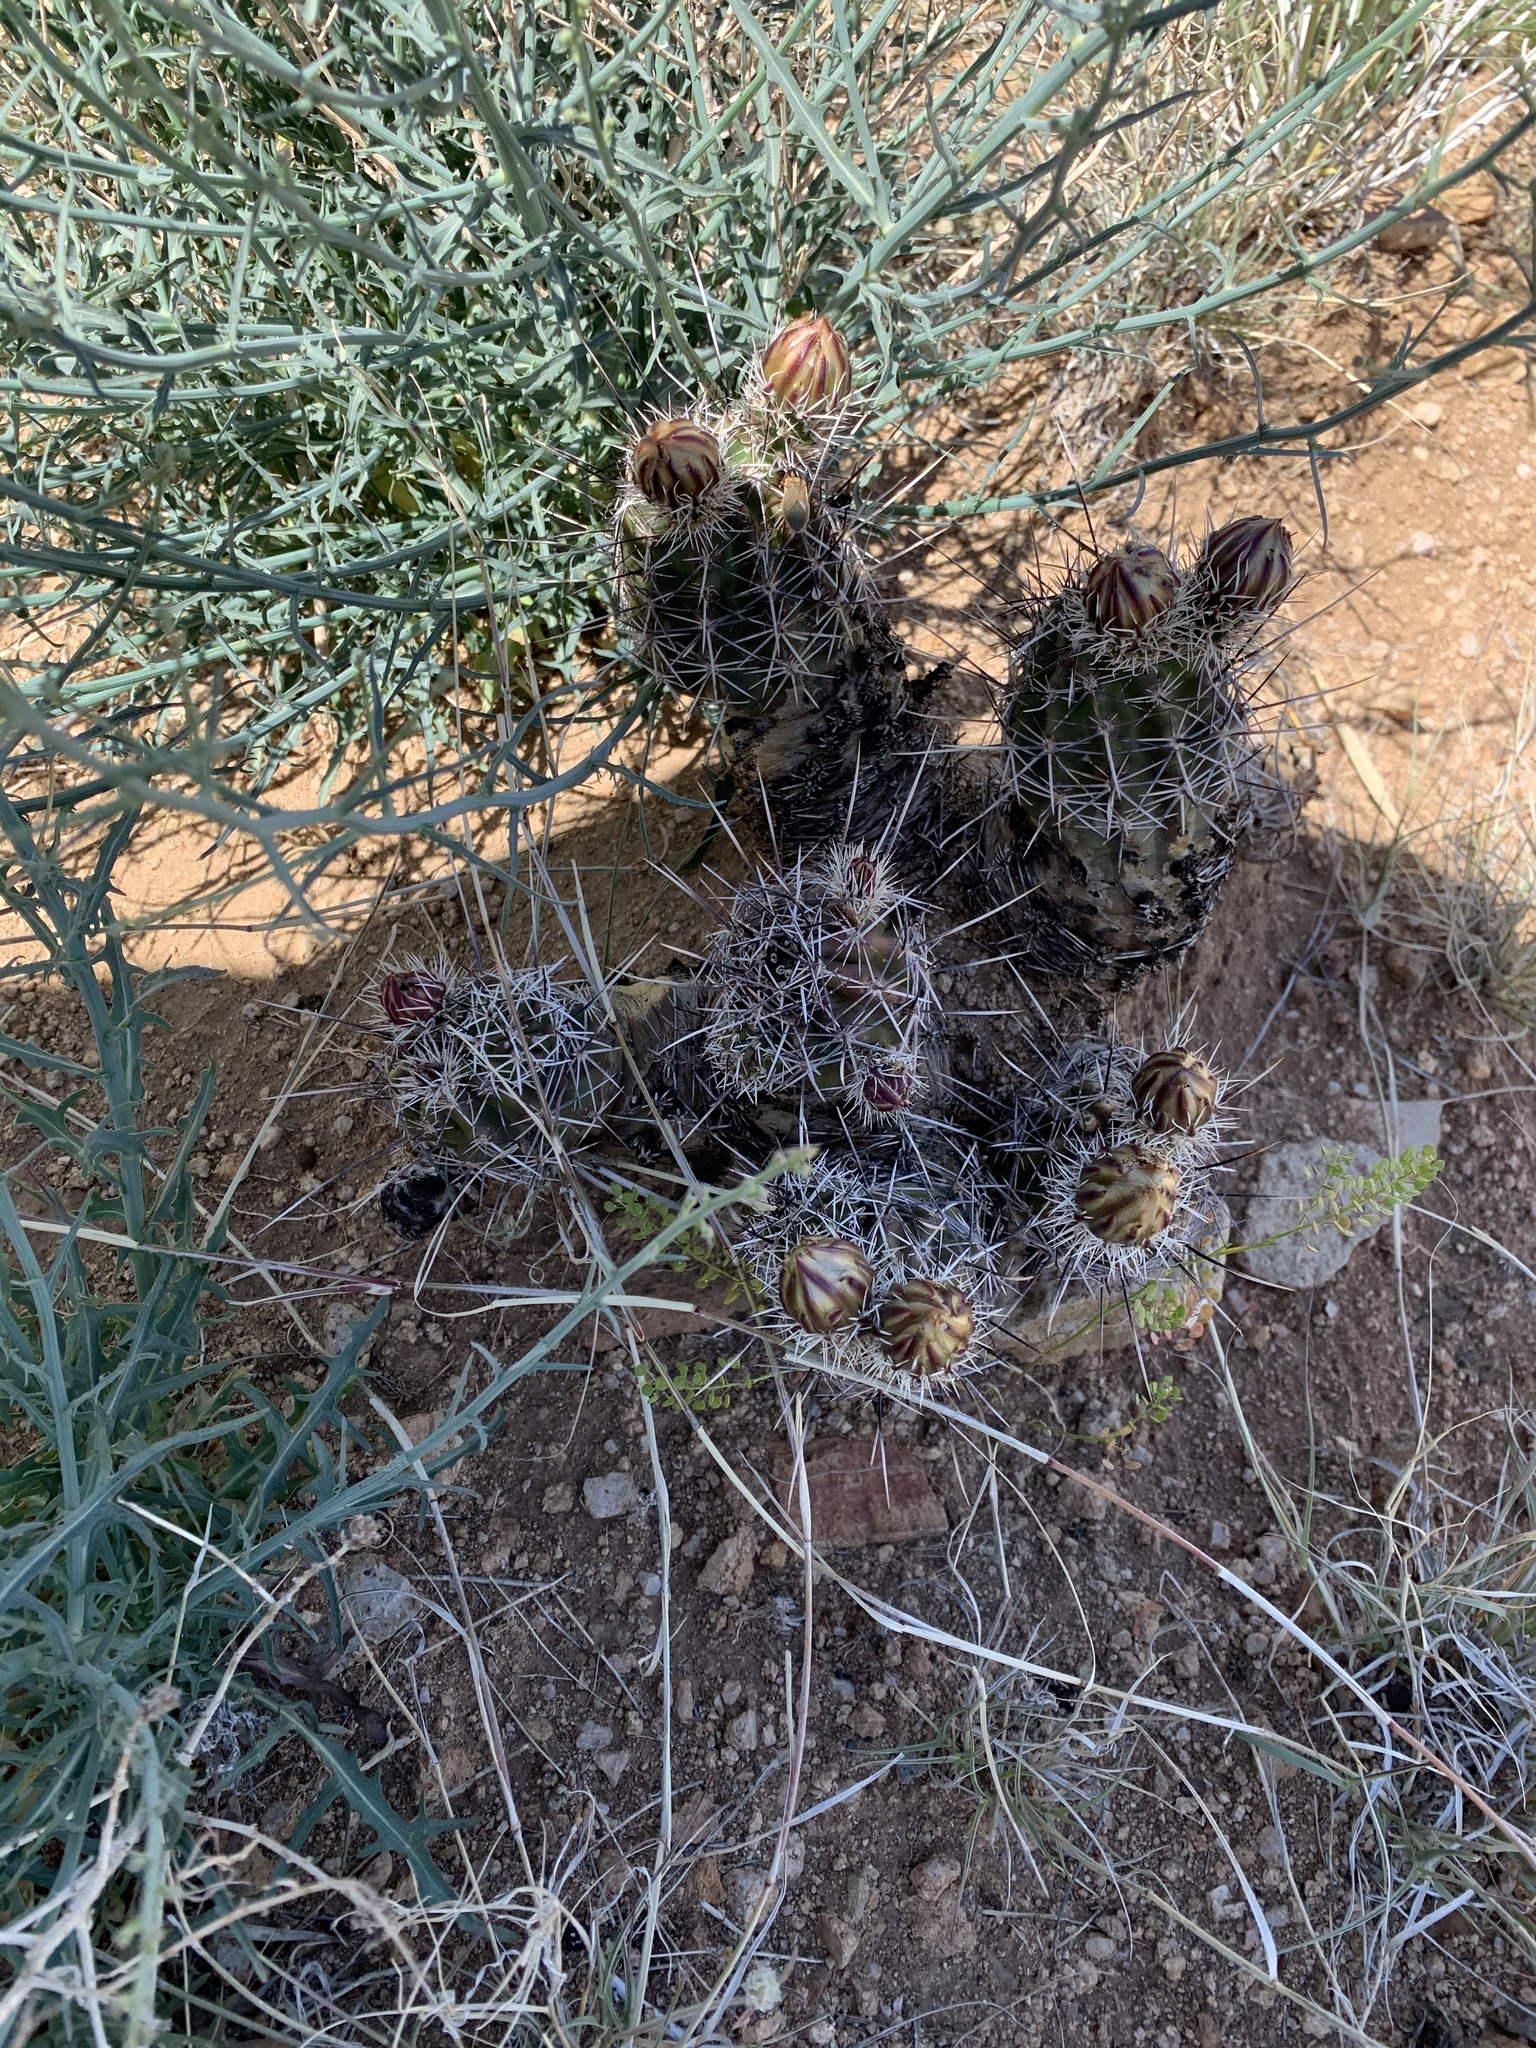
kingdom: Plantae
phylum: Tracheophyta
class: Magnoliopsida
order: Caryophyllales
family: Cactaceae
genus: Echinocereus
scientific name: Echinocereus fendleri
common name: Fendler's hedgehog cactus
